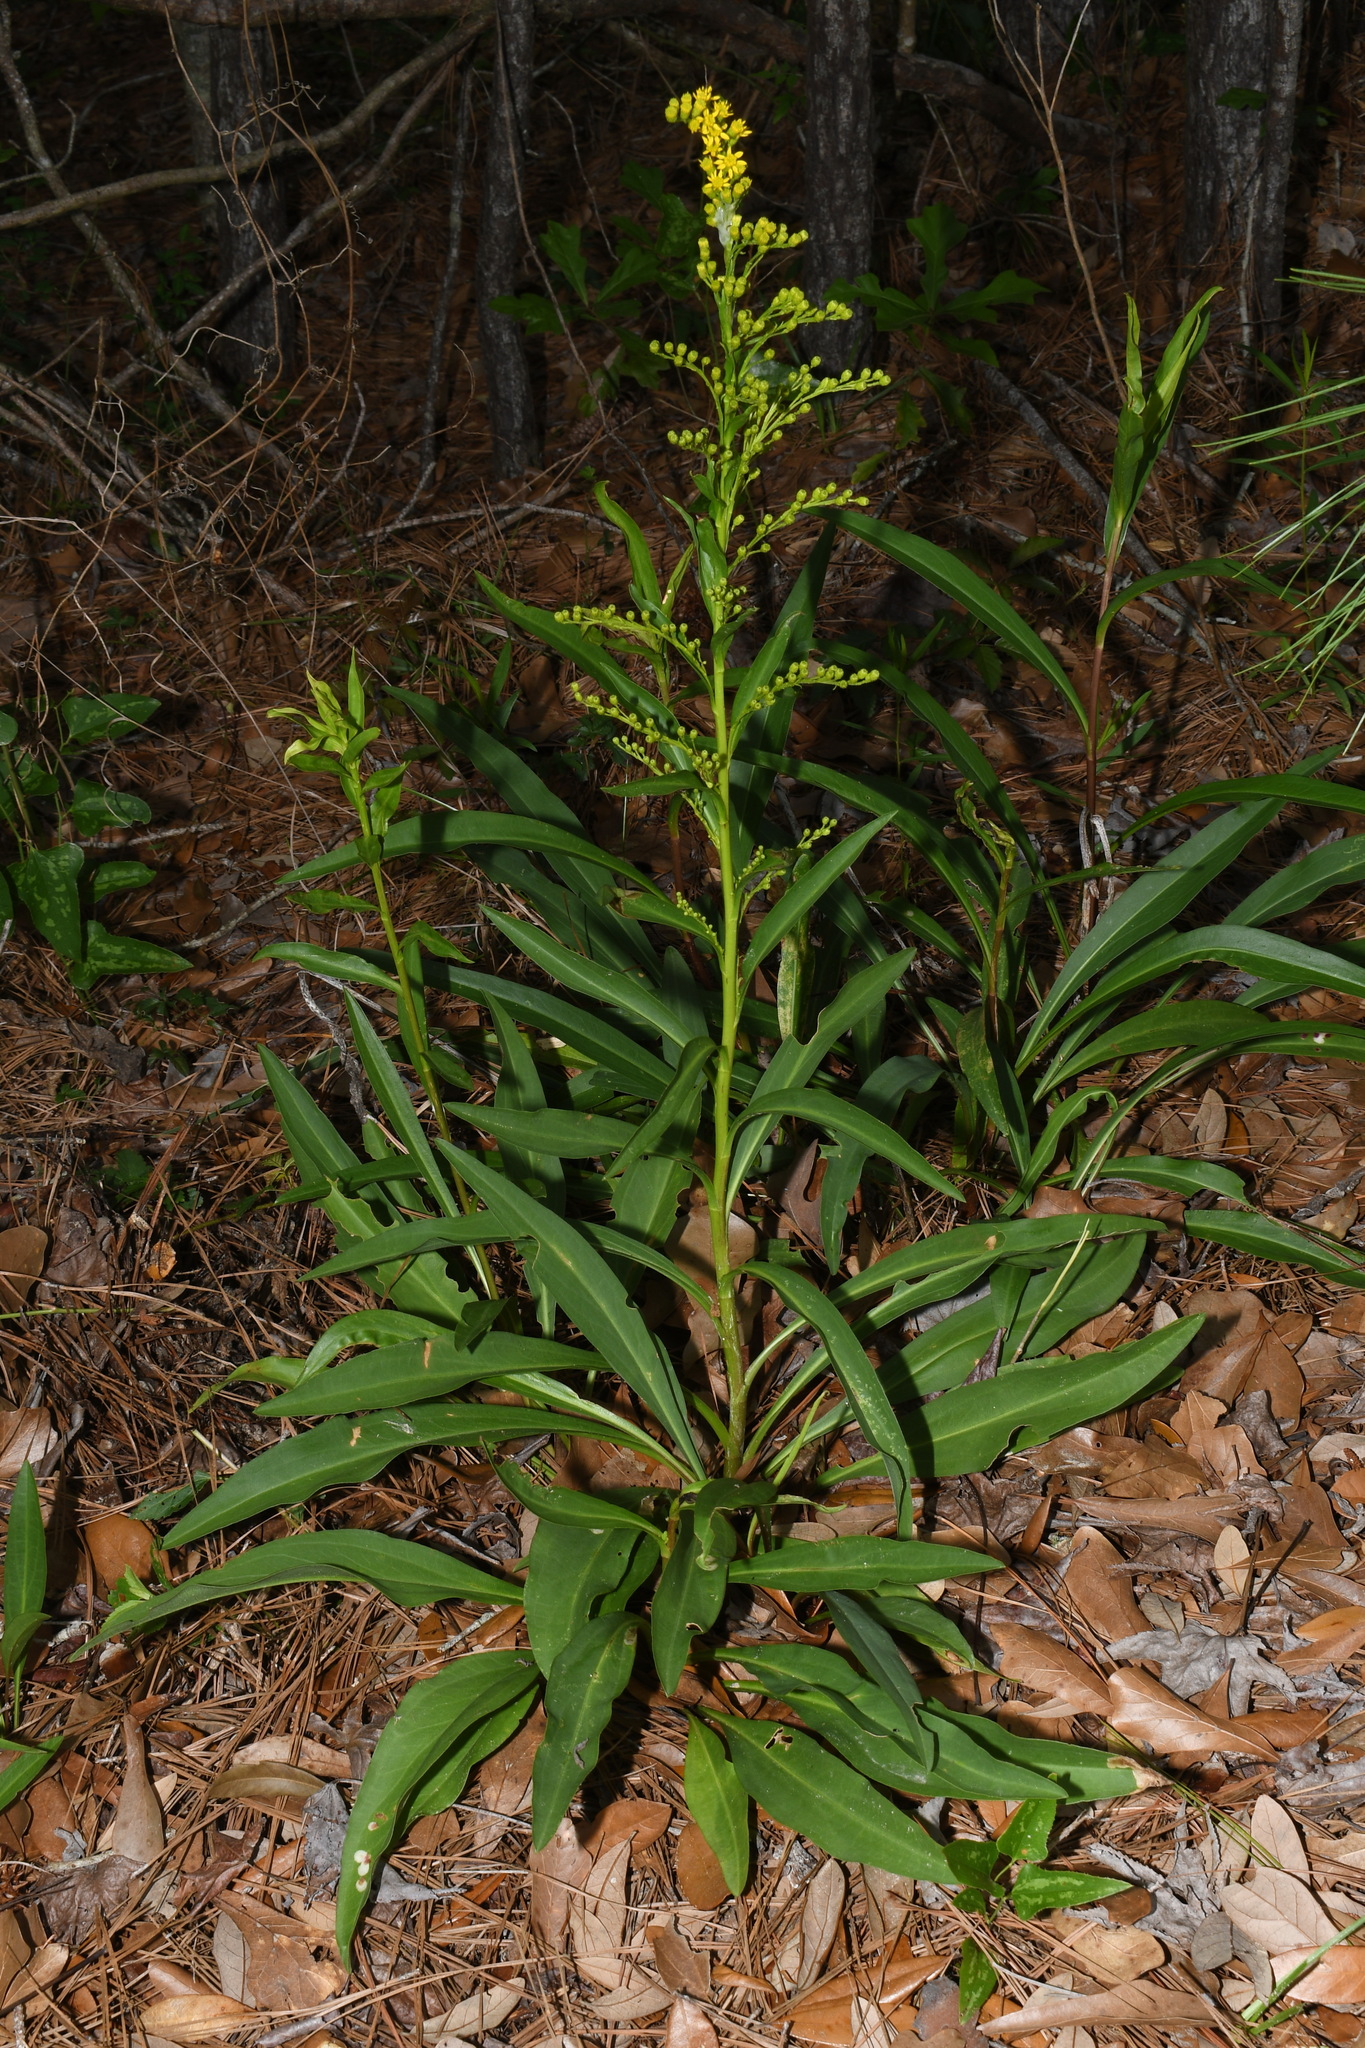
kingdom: Plantae
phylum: Tracheophyta
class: Magnoliopsida
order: Asterales
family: Asteraceae
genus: Solidago
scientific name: Solidago mexicana
